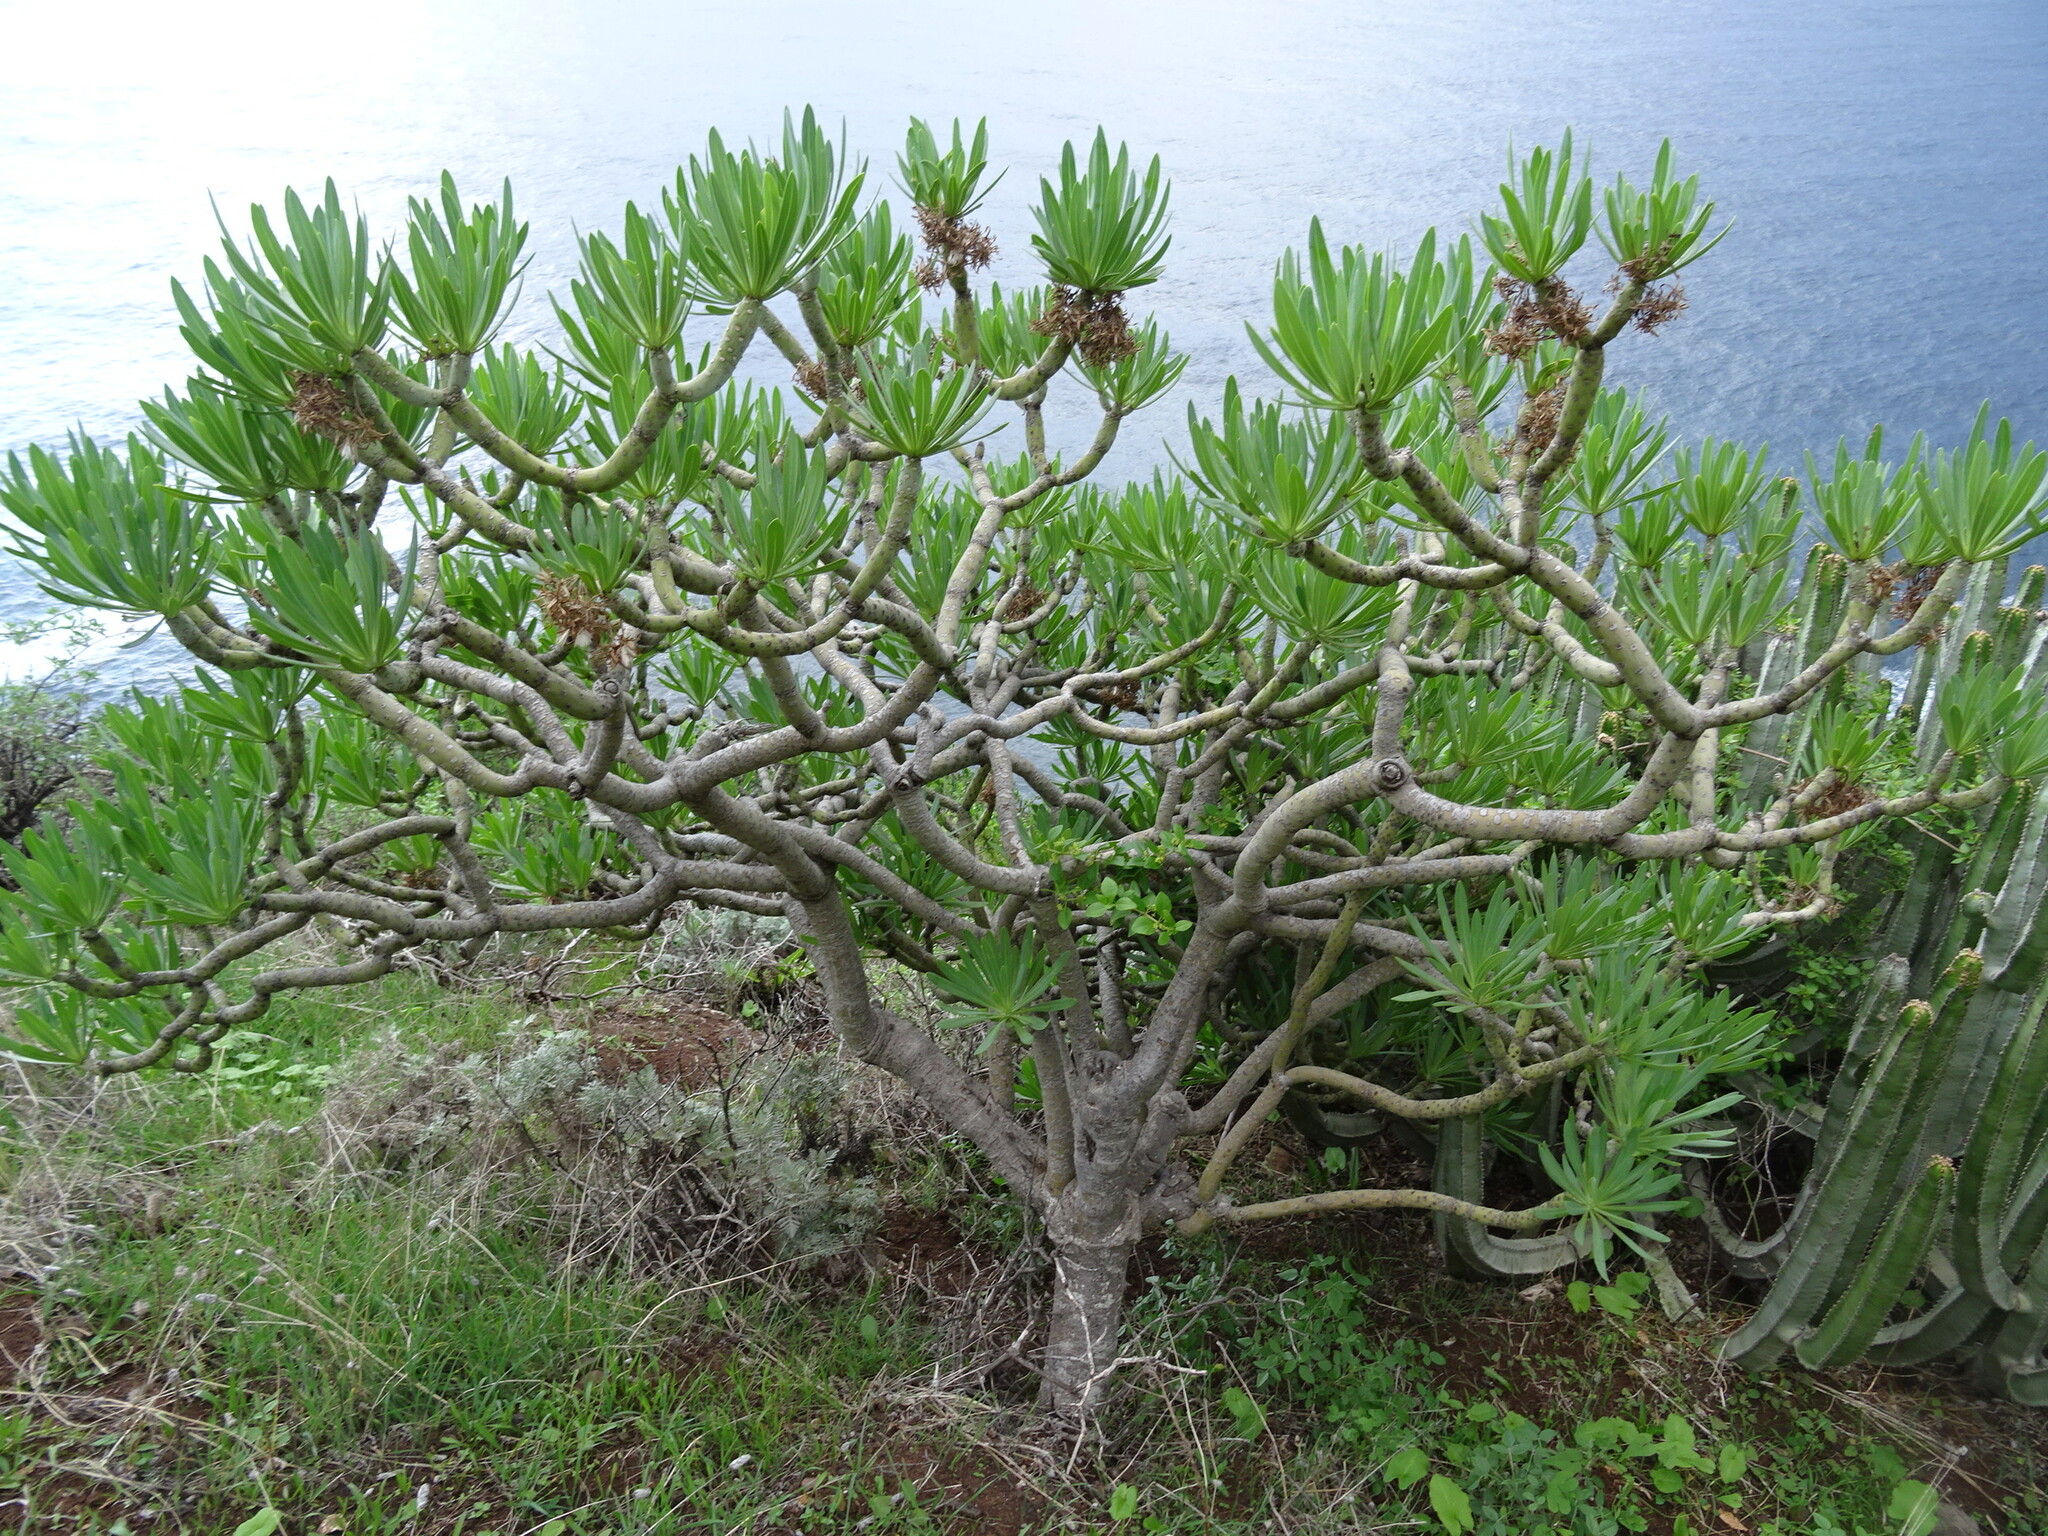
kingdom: Plantae
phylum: Tracheophyta
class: Magnoliopsida
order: Asterales
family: Asteraceae
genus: Kleinia
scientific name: Kleinia neriifolia
